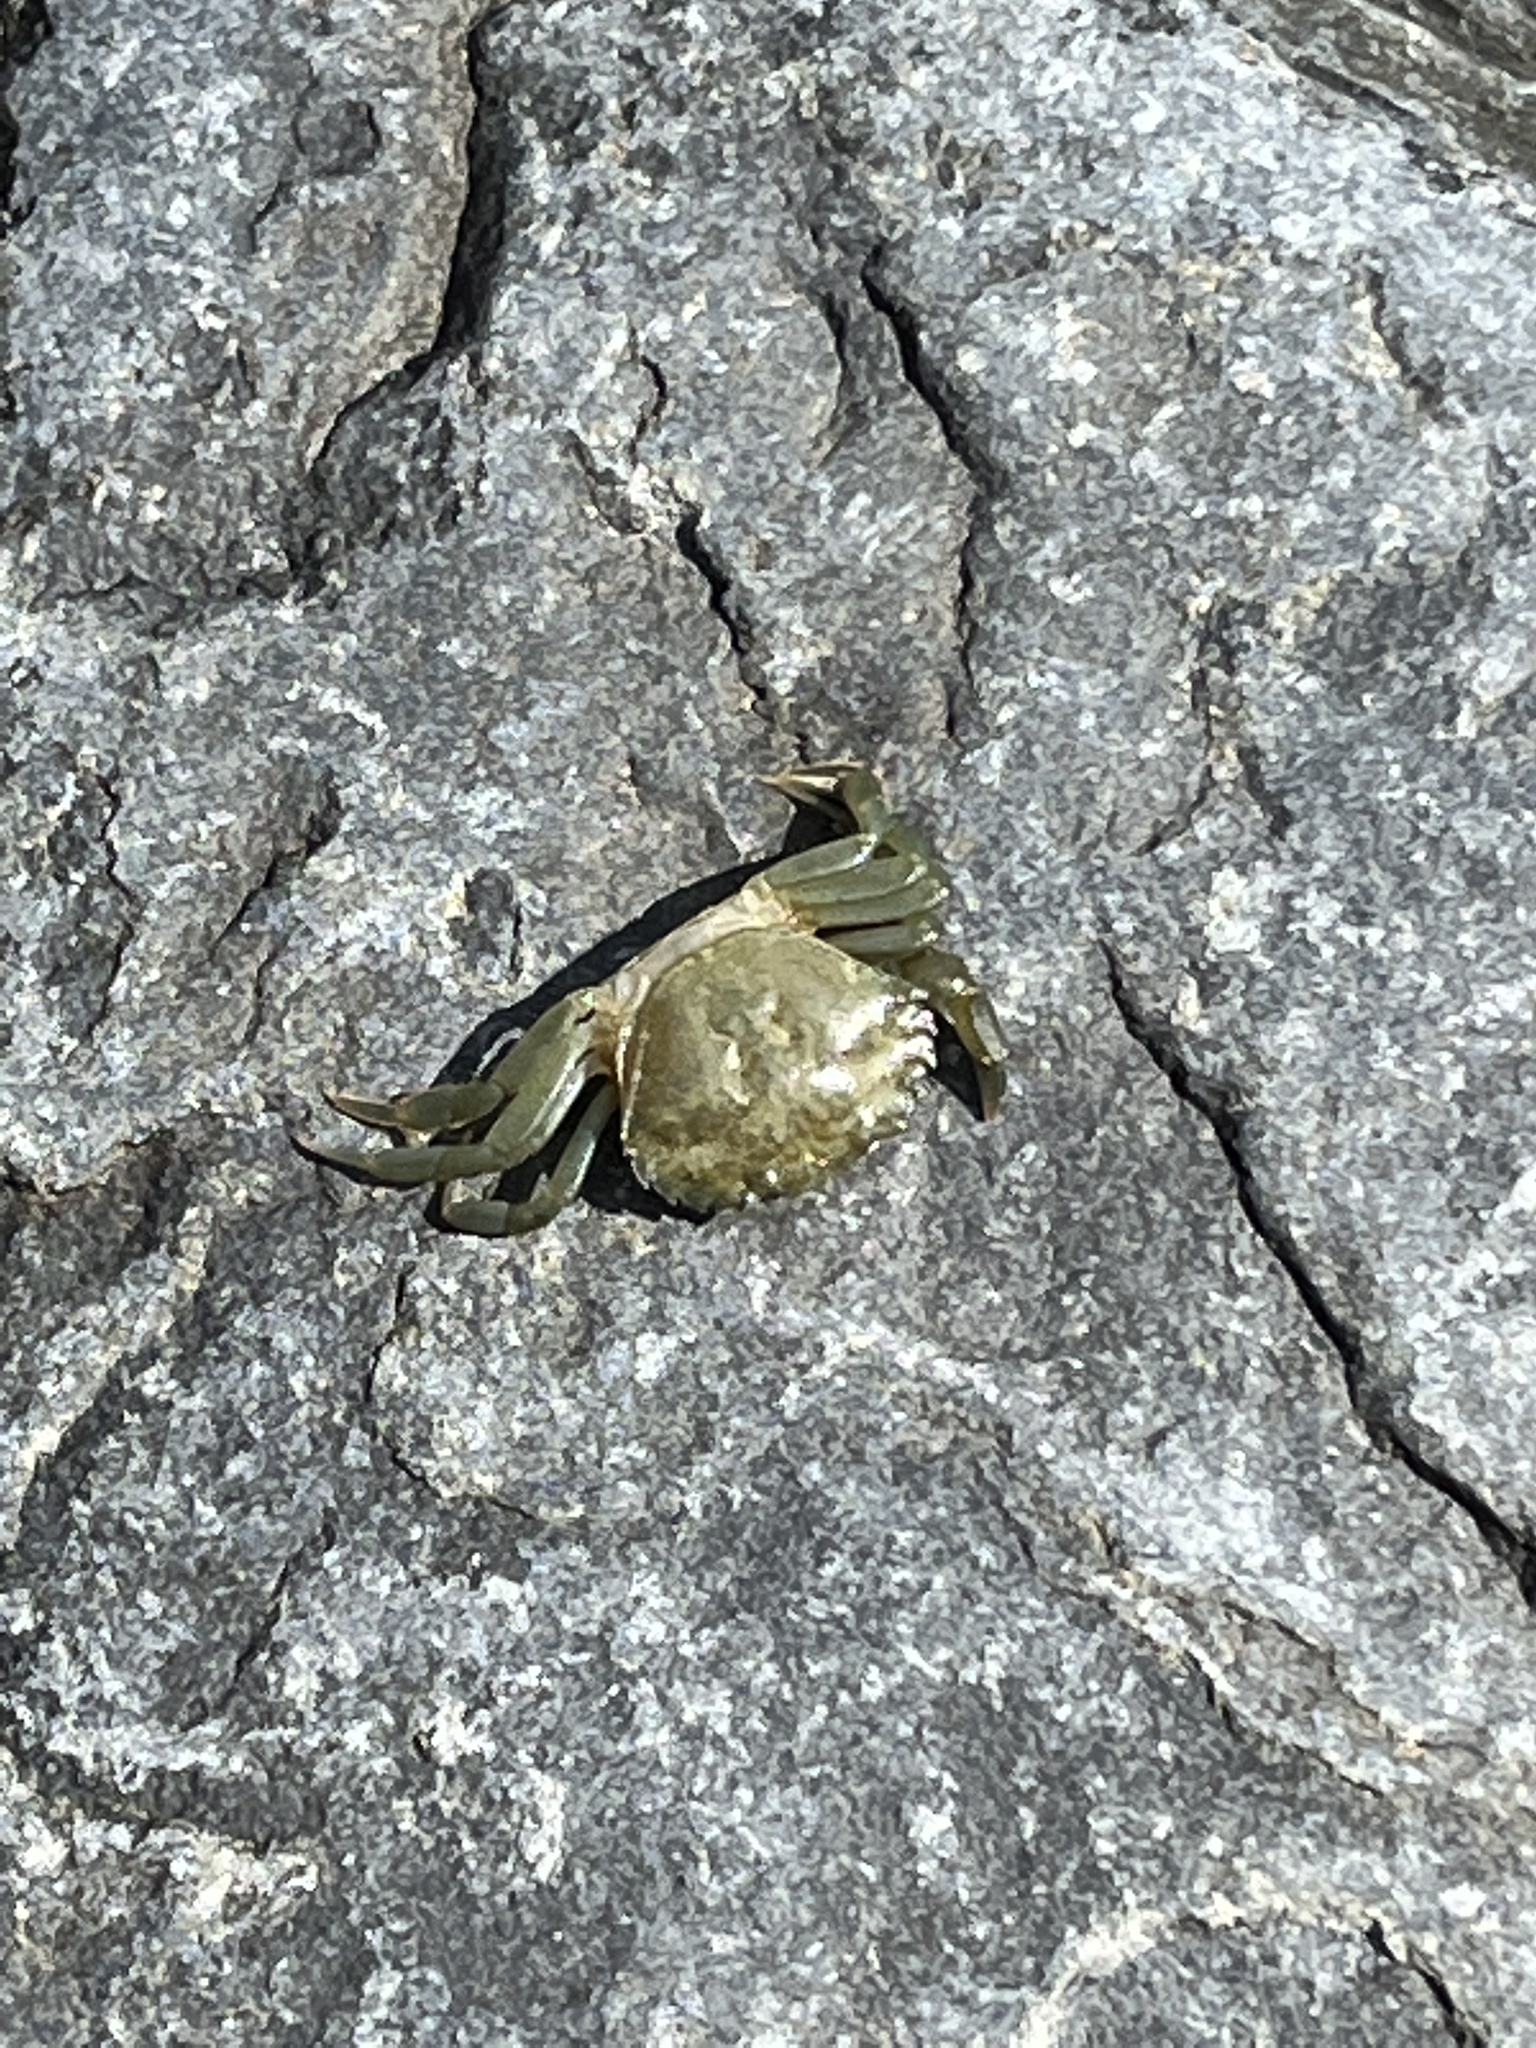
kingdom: Animalia
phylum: Arthropoda
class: Malacostraca
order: Decapoda
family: Carcinidae
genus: Carcinus
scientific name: Carcinus maenas
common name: European green crab
